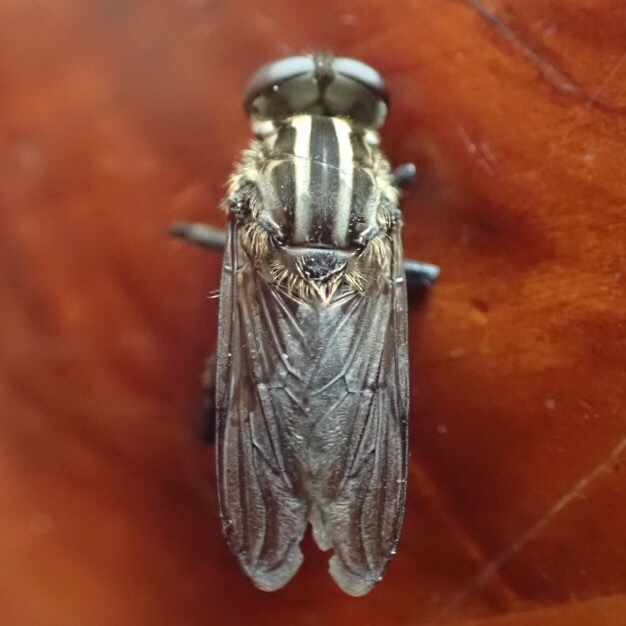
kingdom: Animalia
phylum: Arthropoda
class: Insecta
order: Diptera
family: Syrphidae
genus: Orthoprosopa
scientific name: Orthoprosopa bilineata
